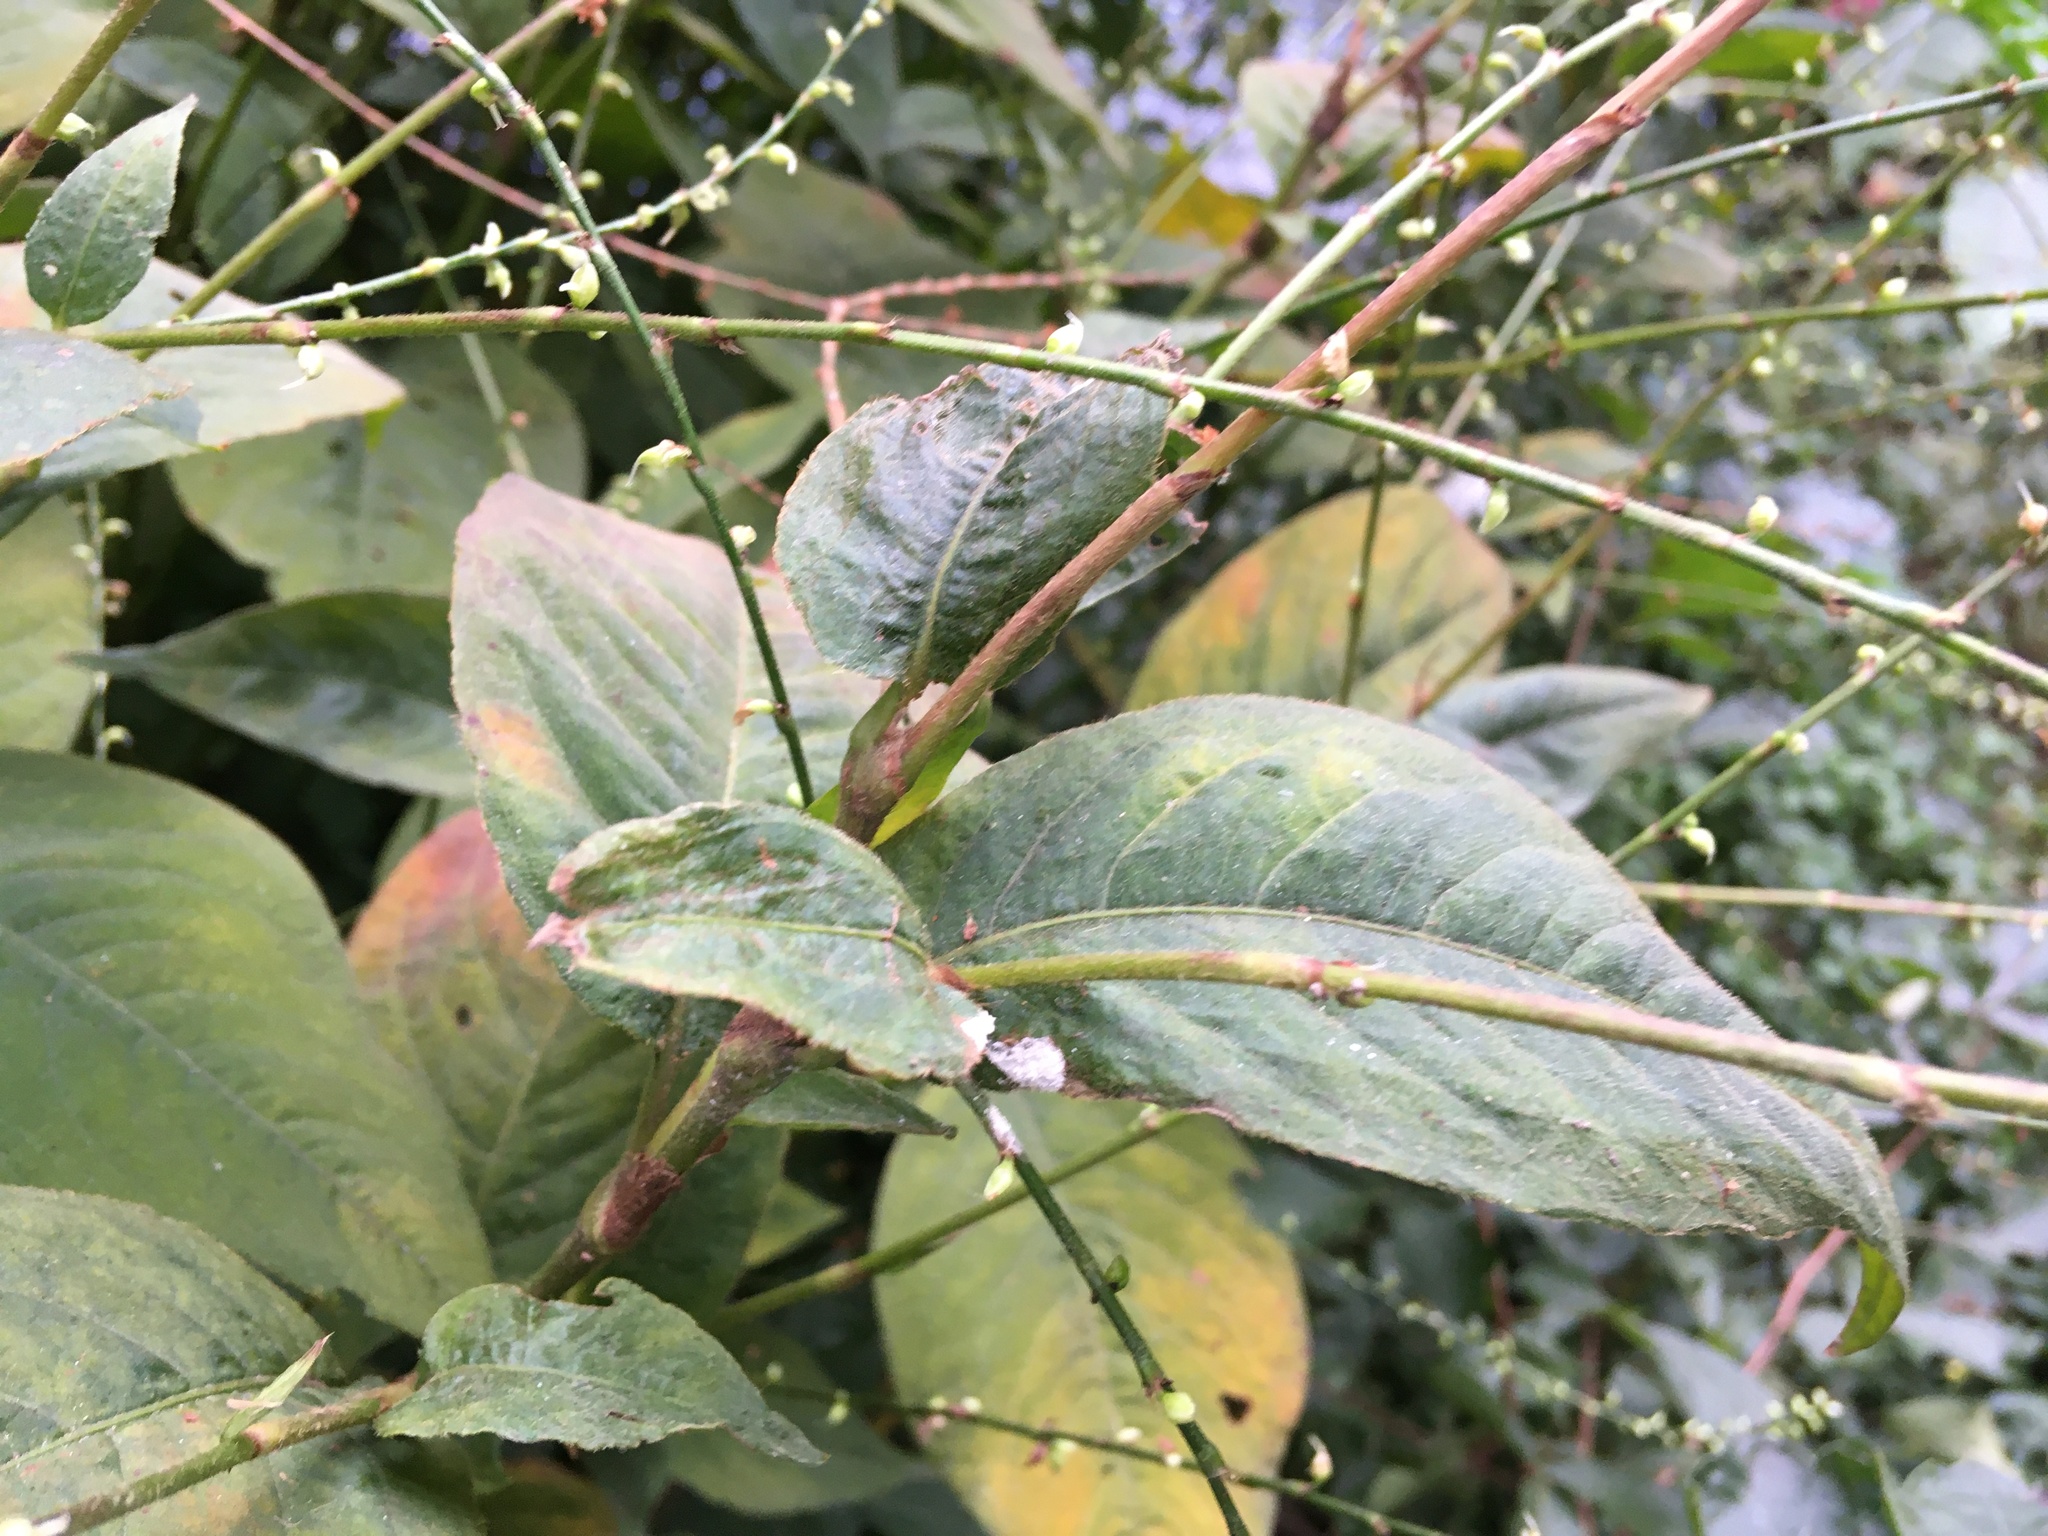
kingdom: Plantae
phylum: Tracheophyta
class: Magnoliopsida
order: Caryophyllales
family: Polygonaceae
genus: Persicaria
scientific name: Persicaria virginiana
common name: Jumpseed
